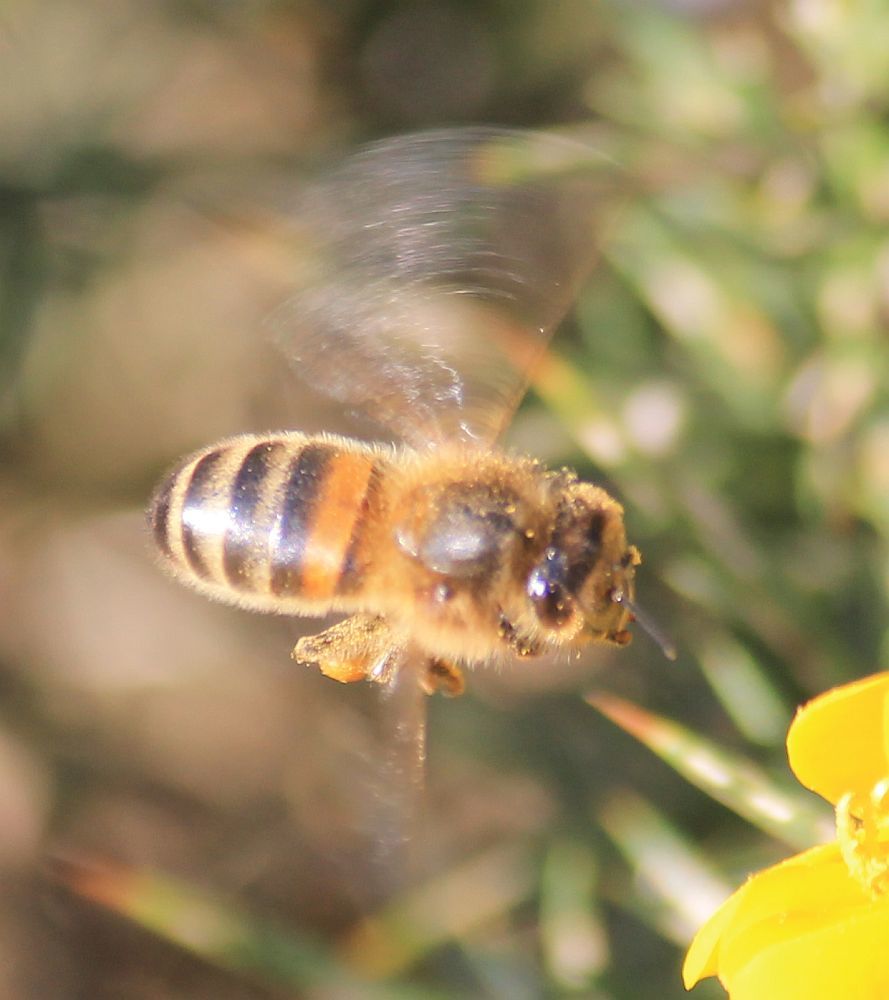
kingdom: Animalia
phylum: Arthropoda
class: Insecta
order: Hymenoptera
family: Apidae
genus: Apis
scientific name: Apis mellifera
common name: Honey bee
